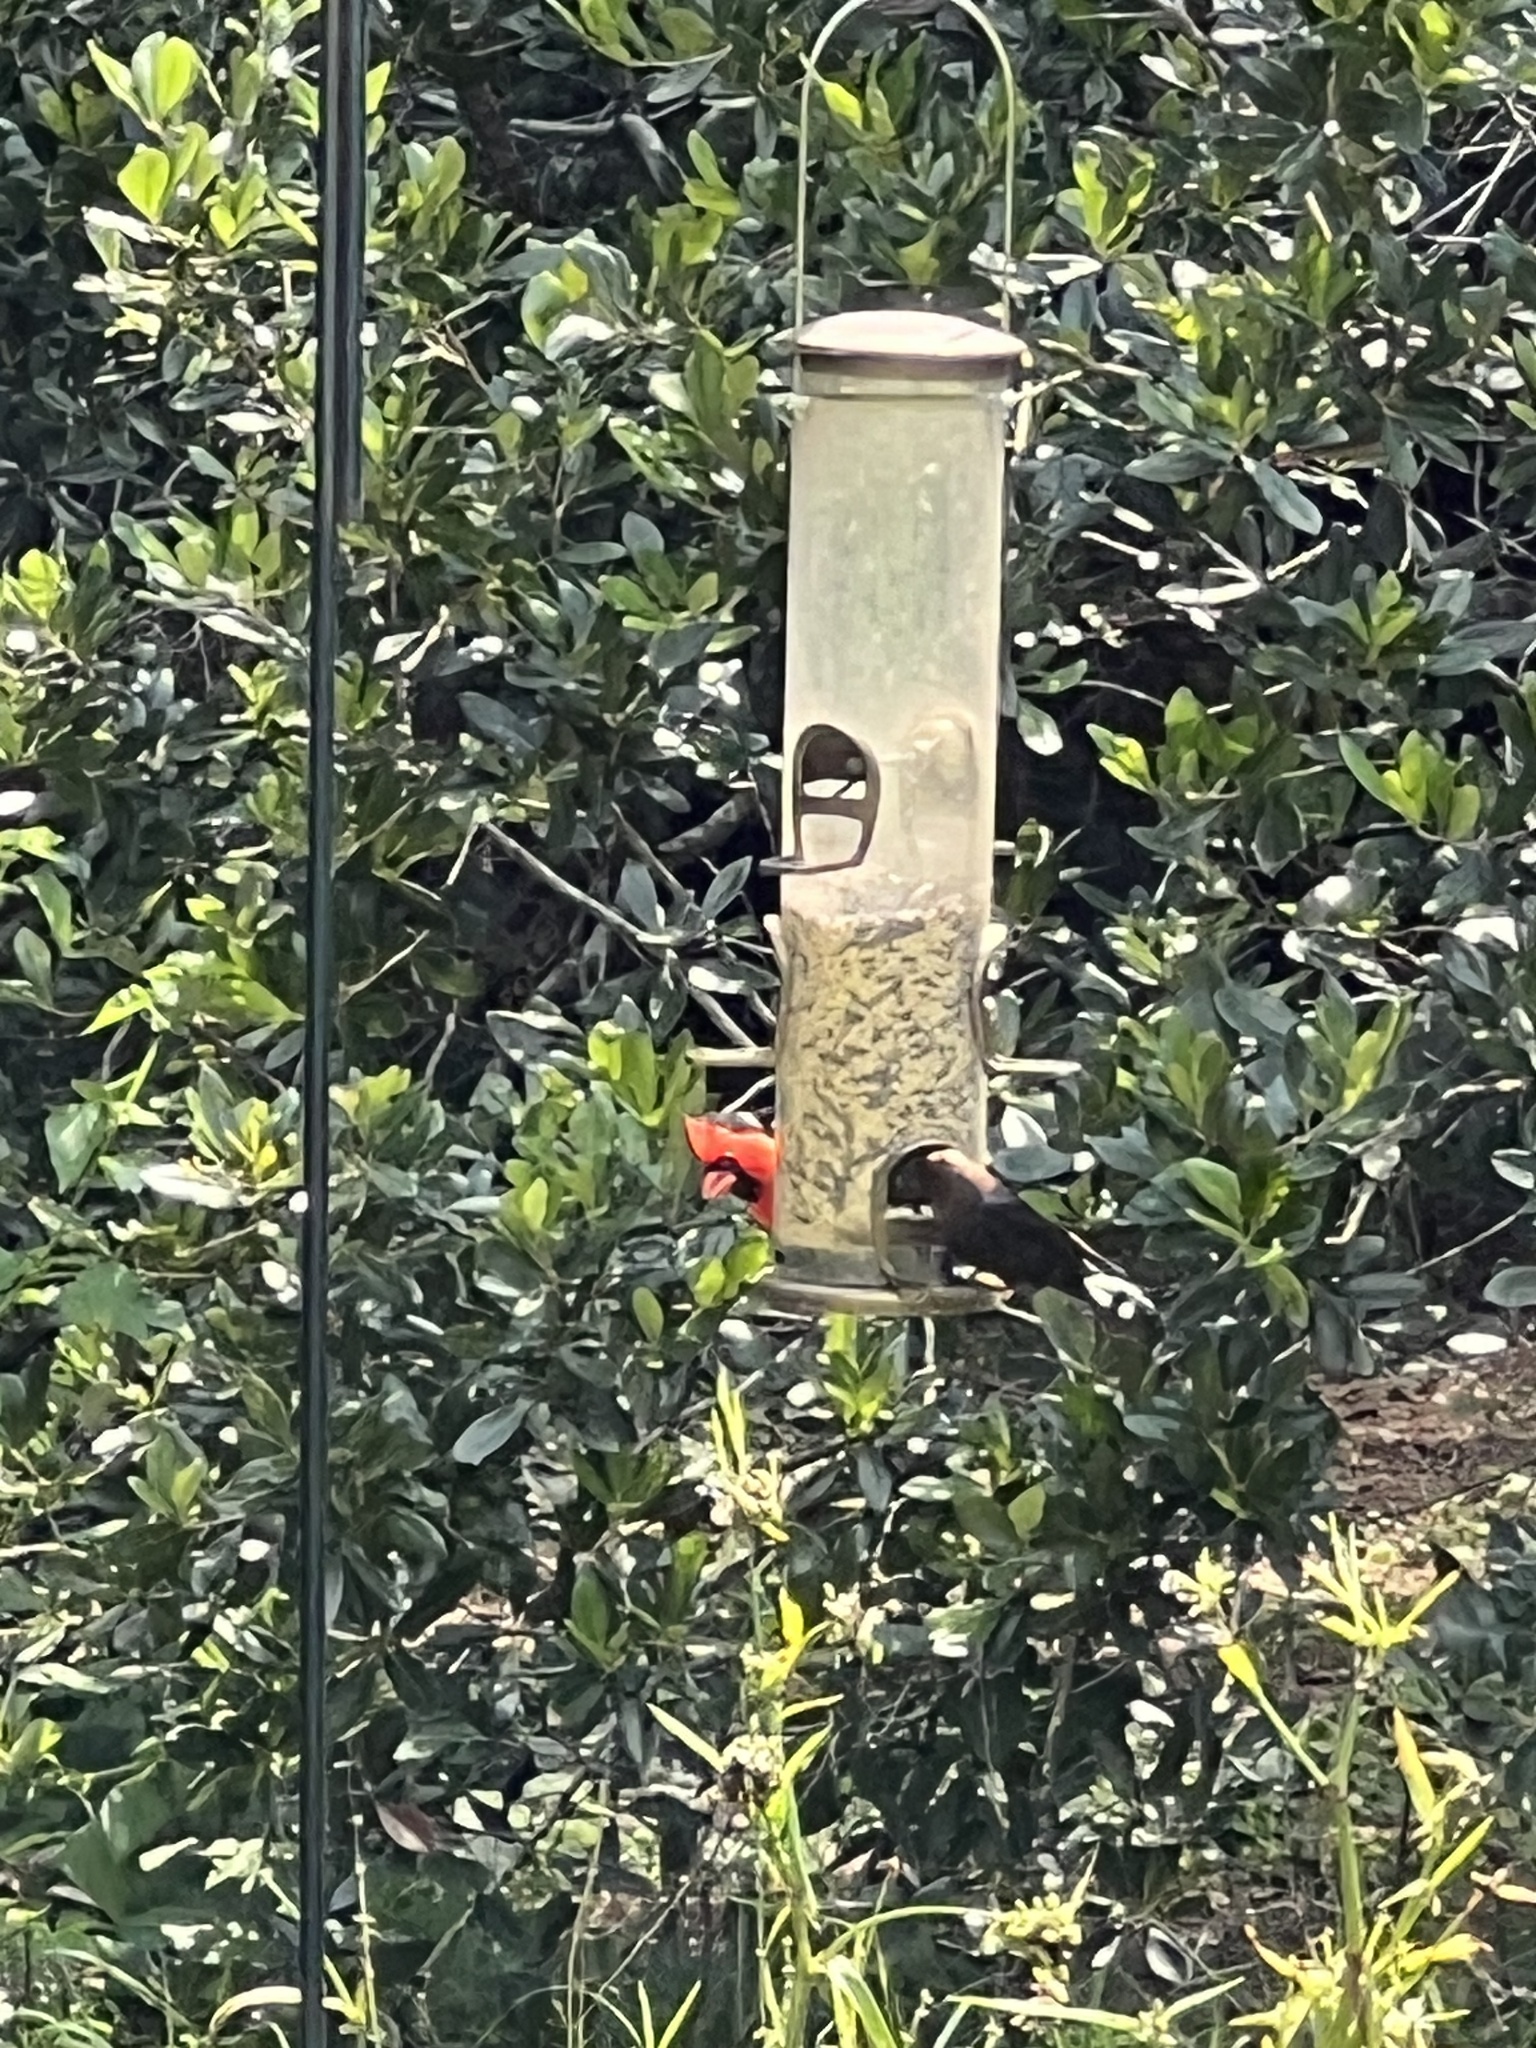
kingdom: Animalia
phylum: Chordata
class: Aves
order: Passeriformes
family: Cardinalidae
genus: Cardinalis
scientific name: Cardinalis cardinalis
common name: Northern cardinal
